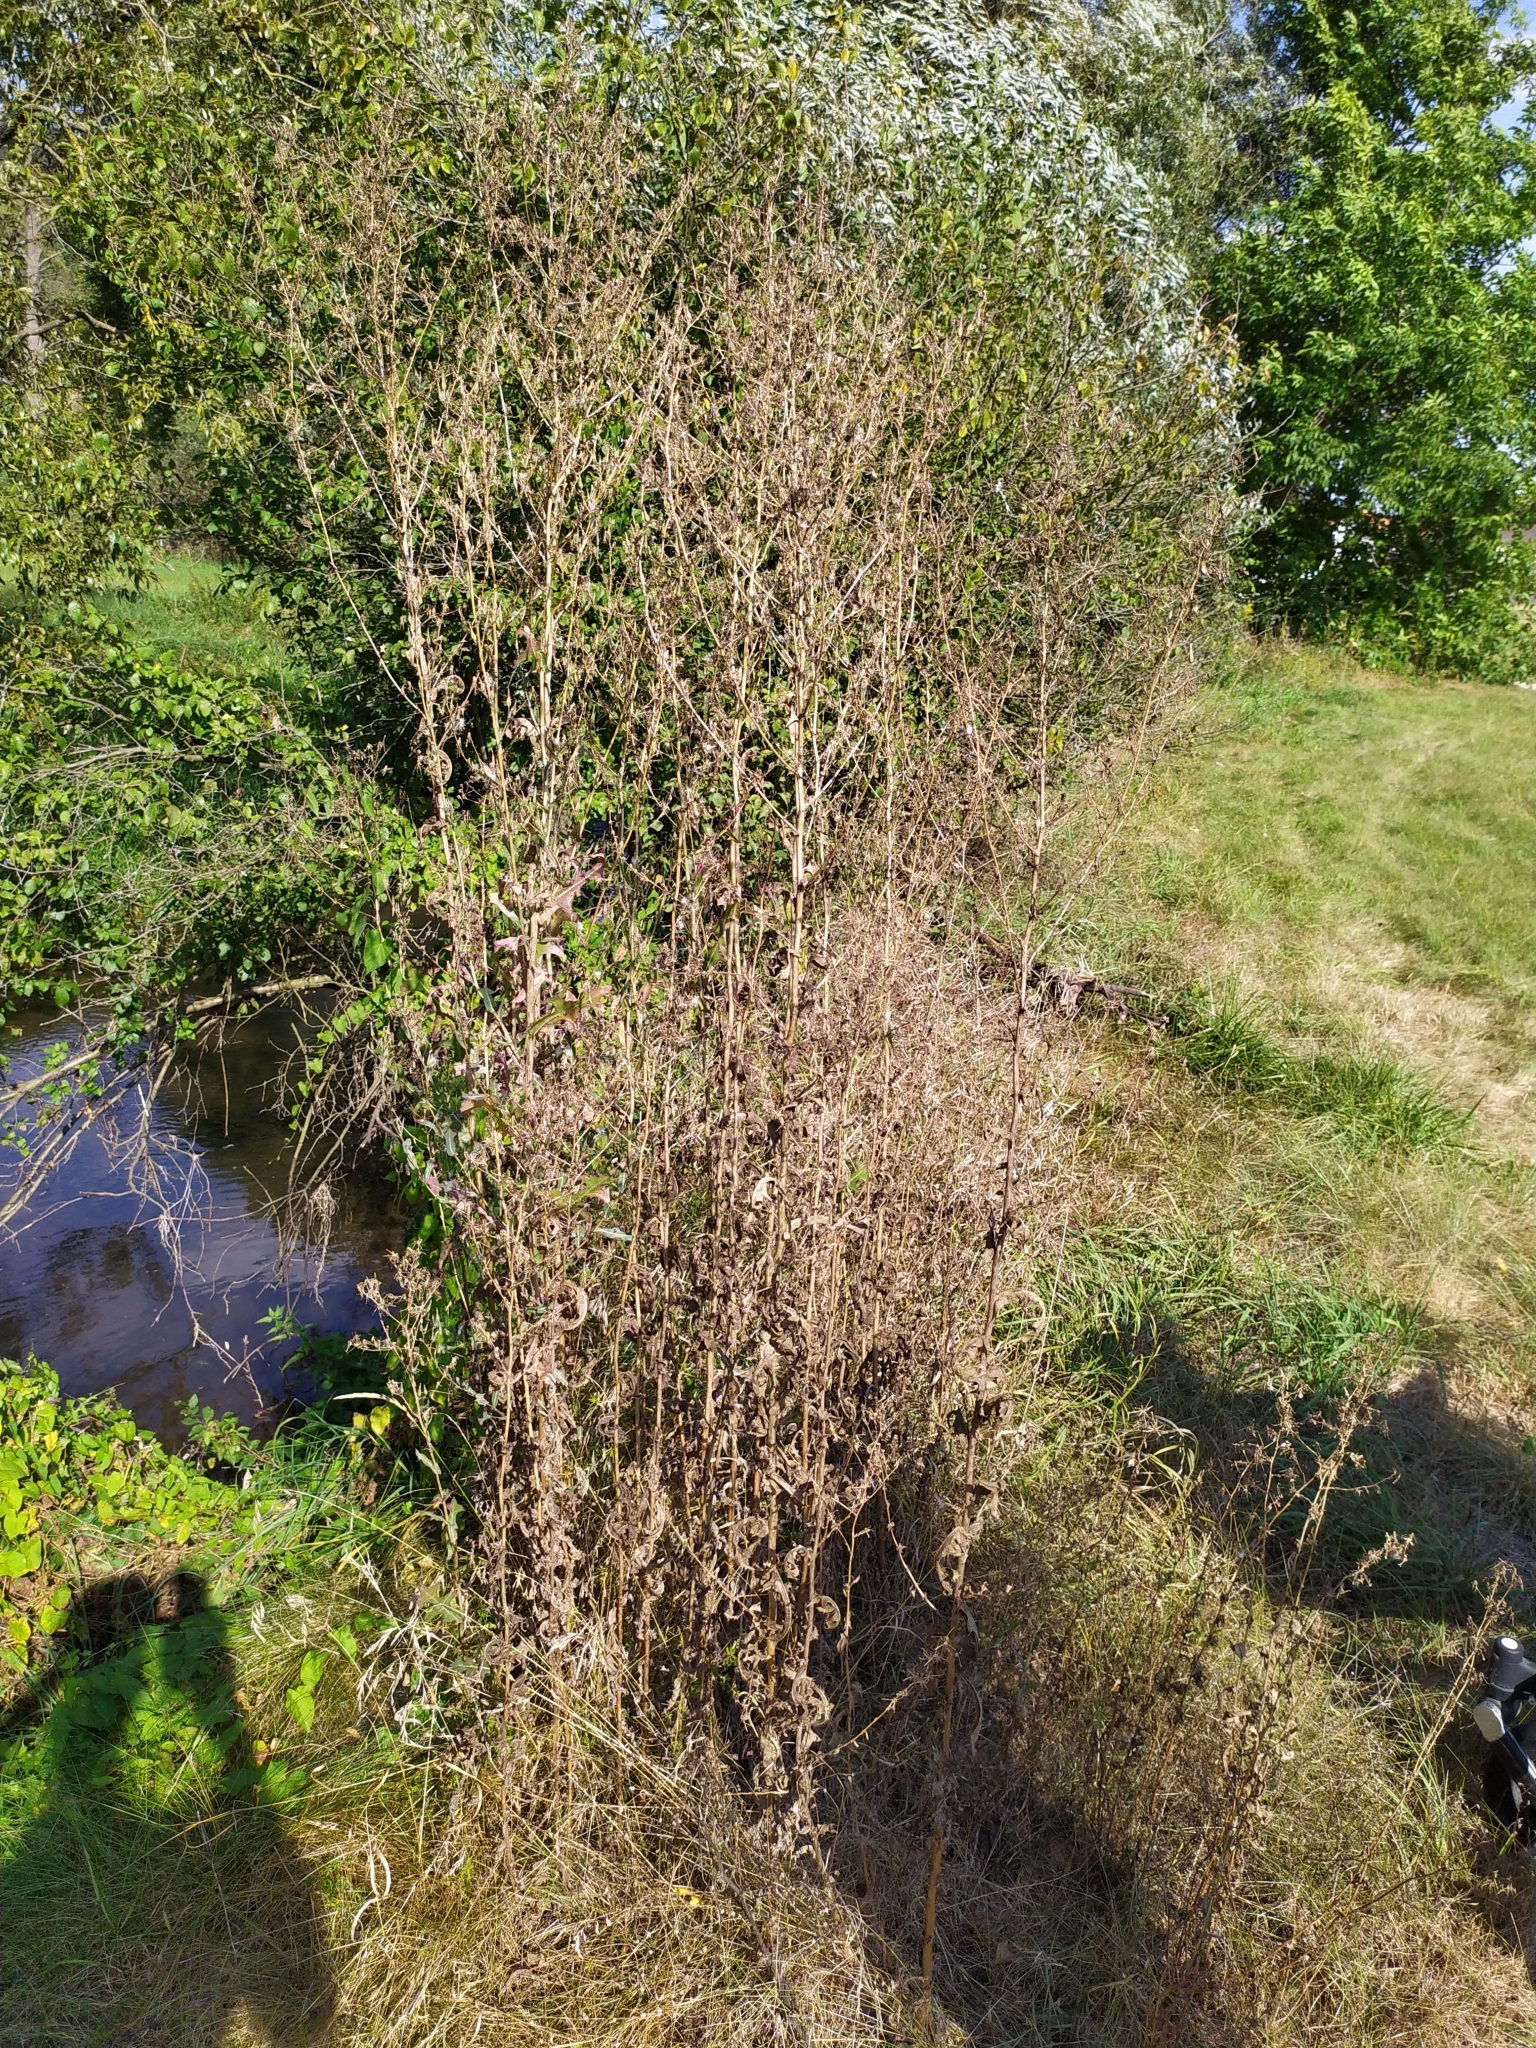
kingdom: Plantae
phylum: Tracheophyta
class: Magnoliopsida
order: Asterales
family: Asteraceae
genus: Lactuca
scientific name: Lactuca serriola
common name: Prickly lettuce
